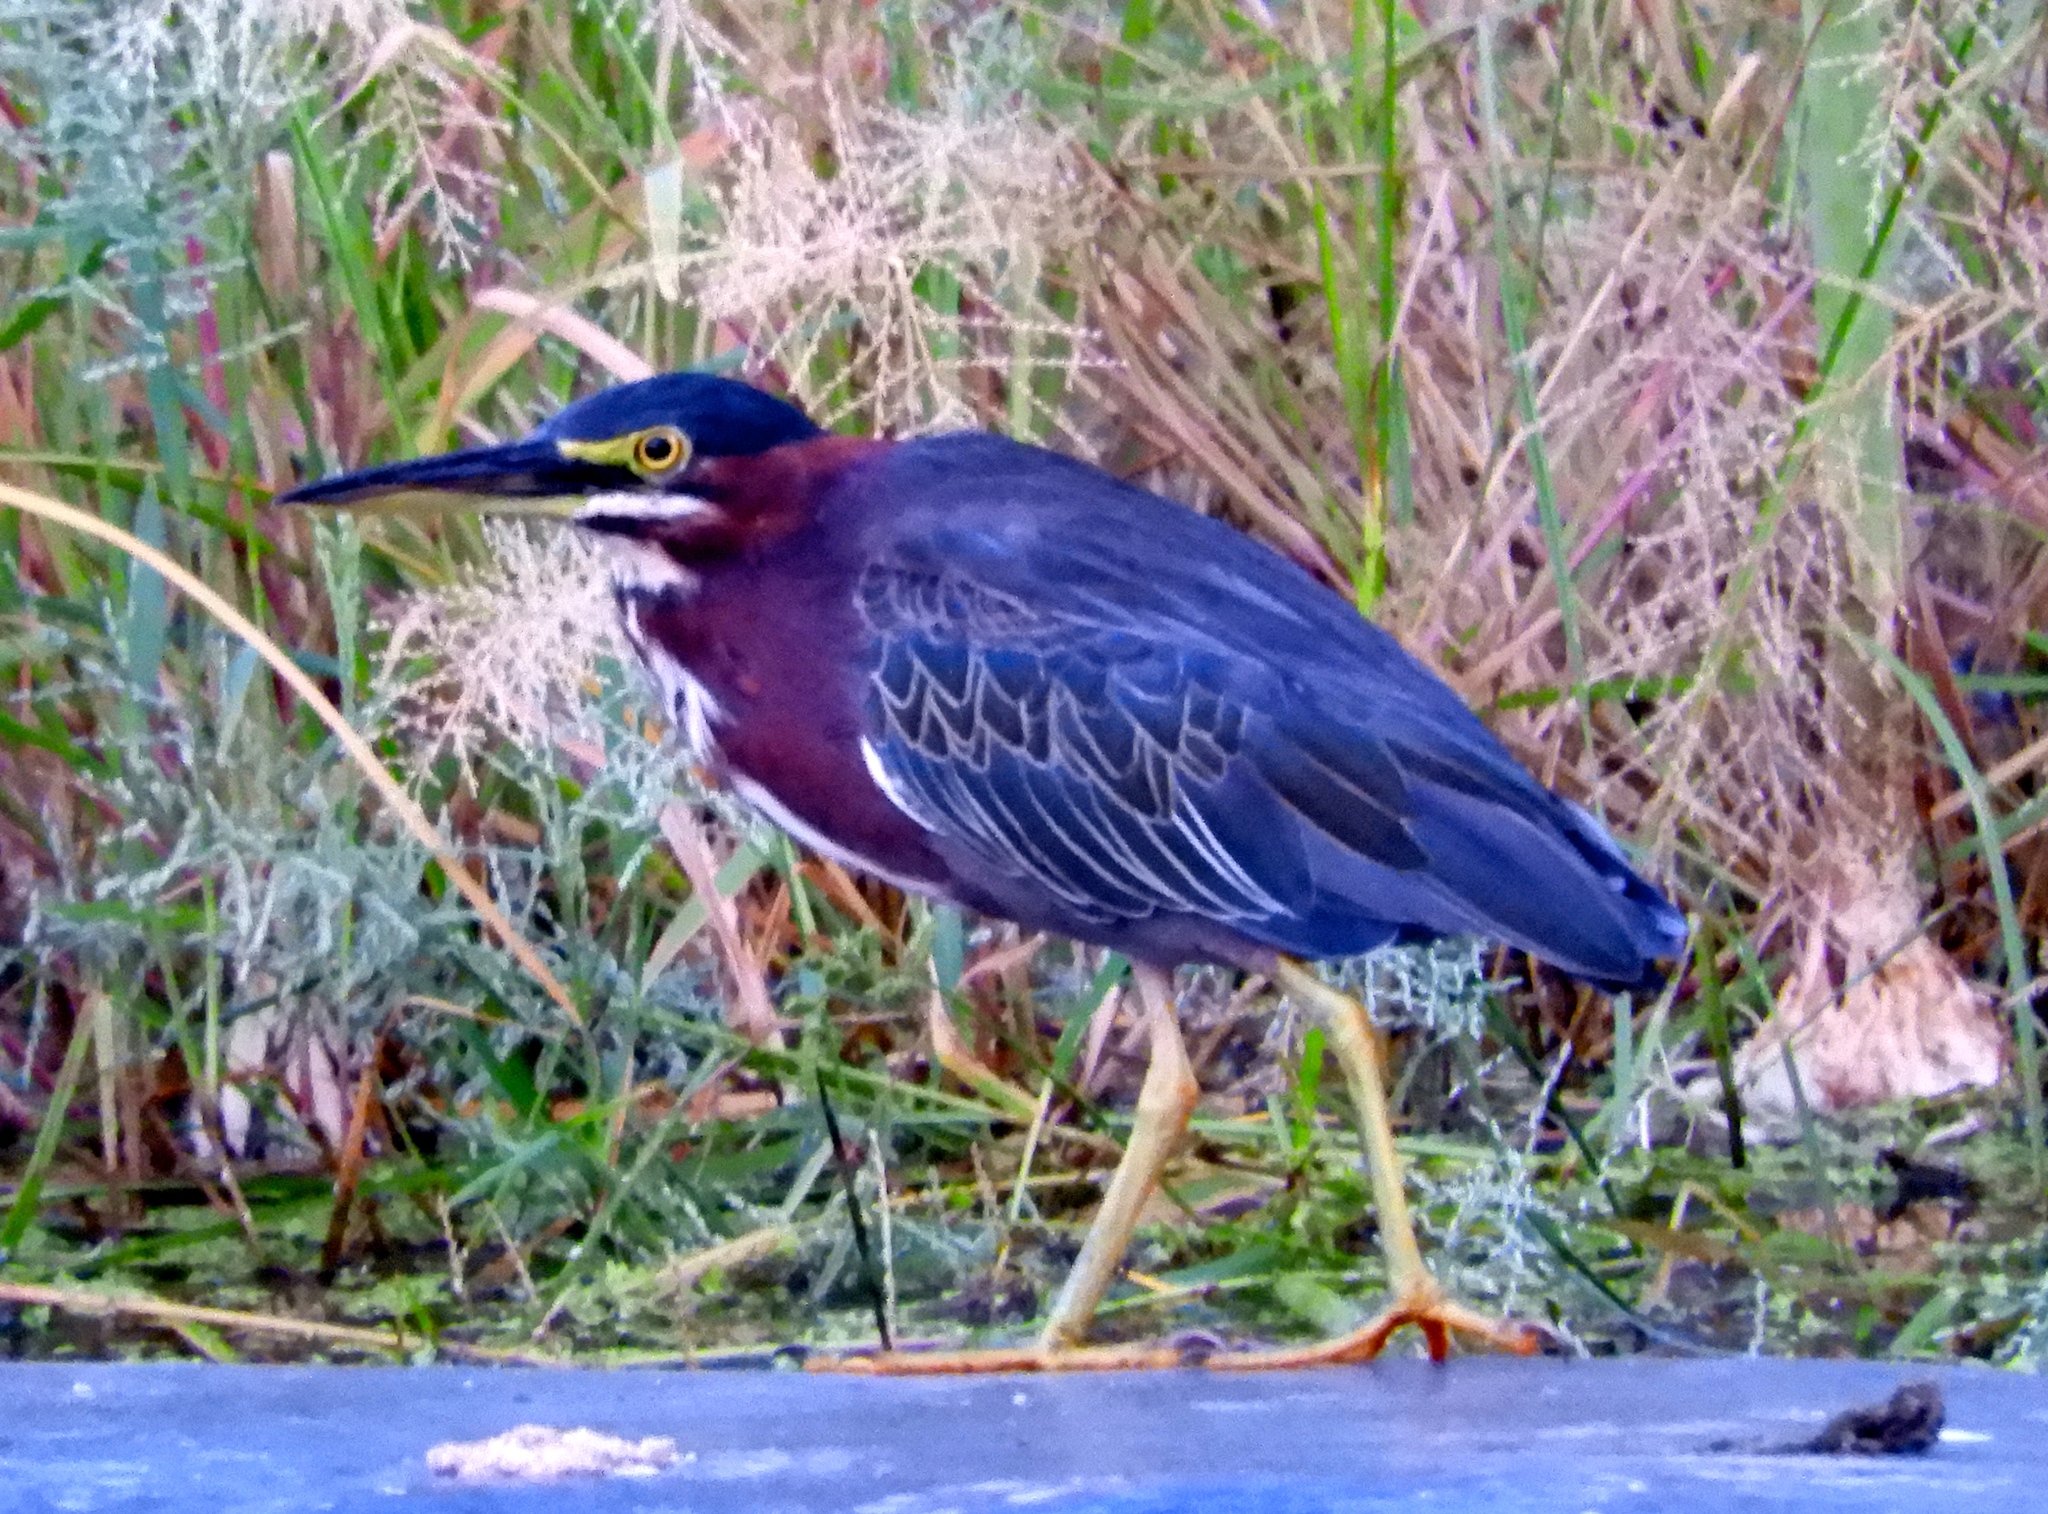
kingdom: Animalia
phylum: Chordata
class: Aves
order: Pelecaniformes
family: Ardeidae
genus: Butorides
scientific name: Butorides virescens
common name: Green heron
